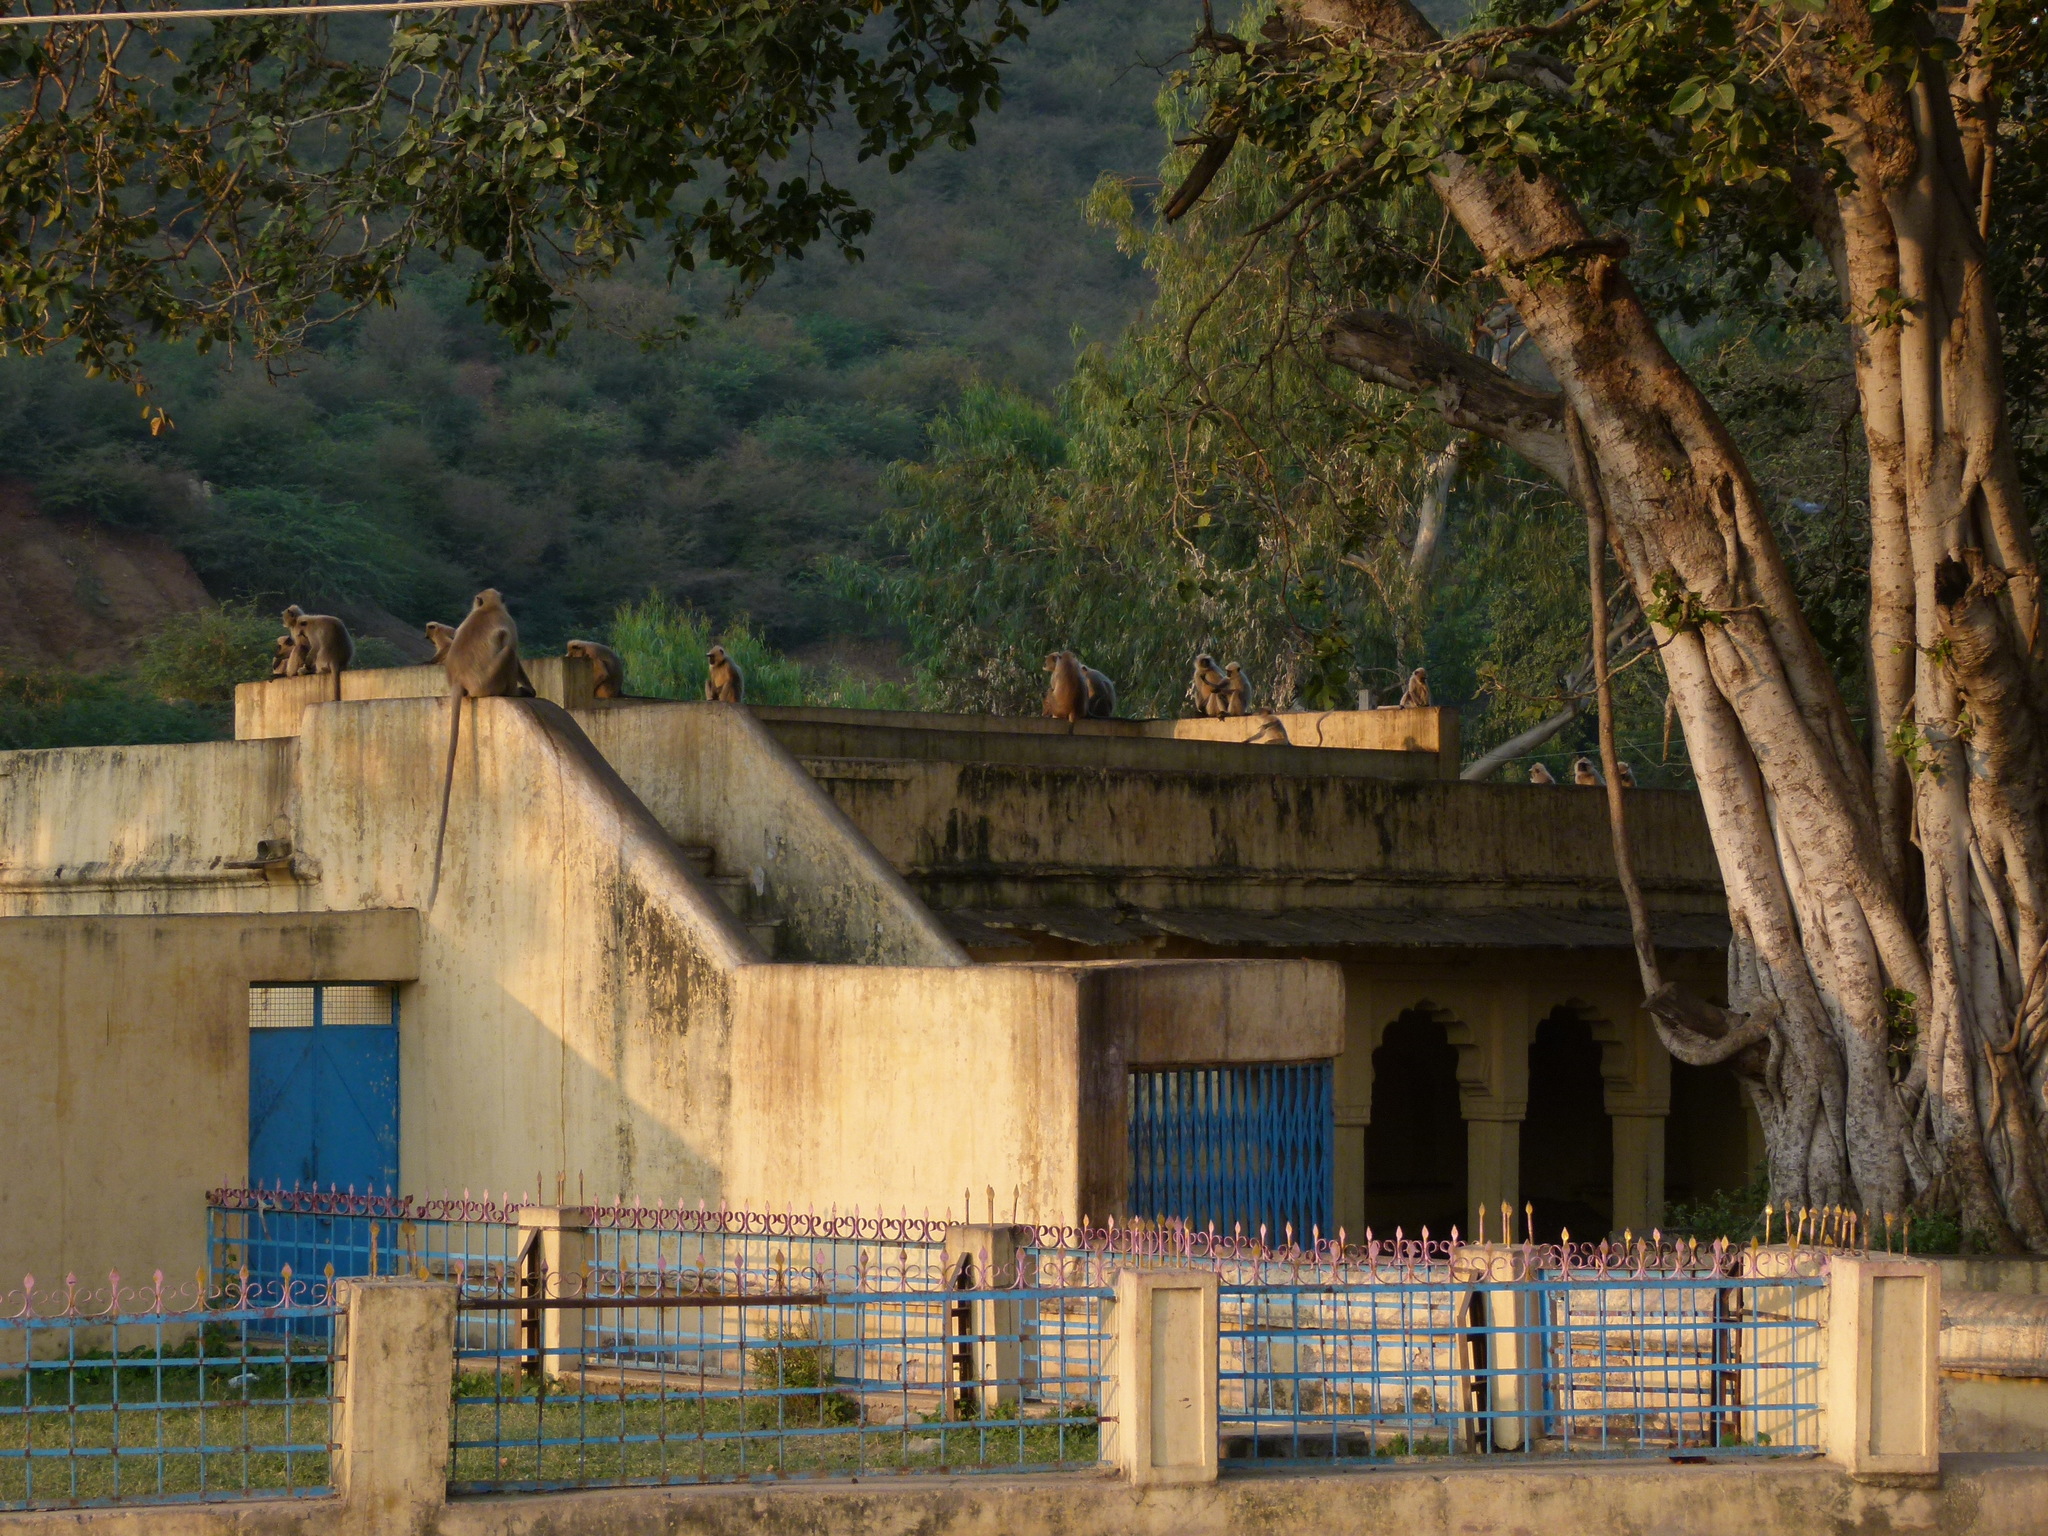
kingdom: Animalia
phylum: Chordata
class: Mammalia
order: Primates
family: Cercopithecidae
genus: Semnopithecus
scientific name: Semnopithecus entellus
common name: Northern plains gray langur
